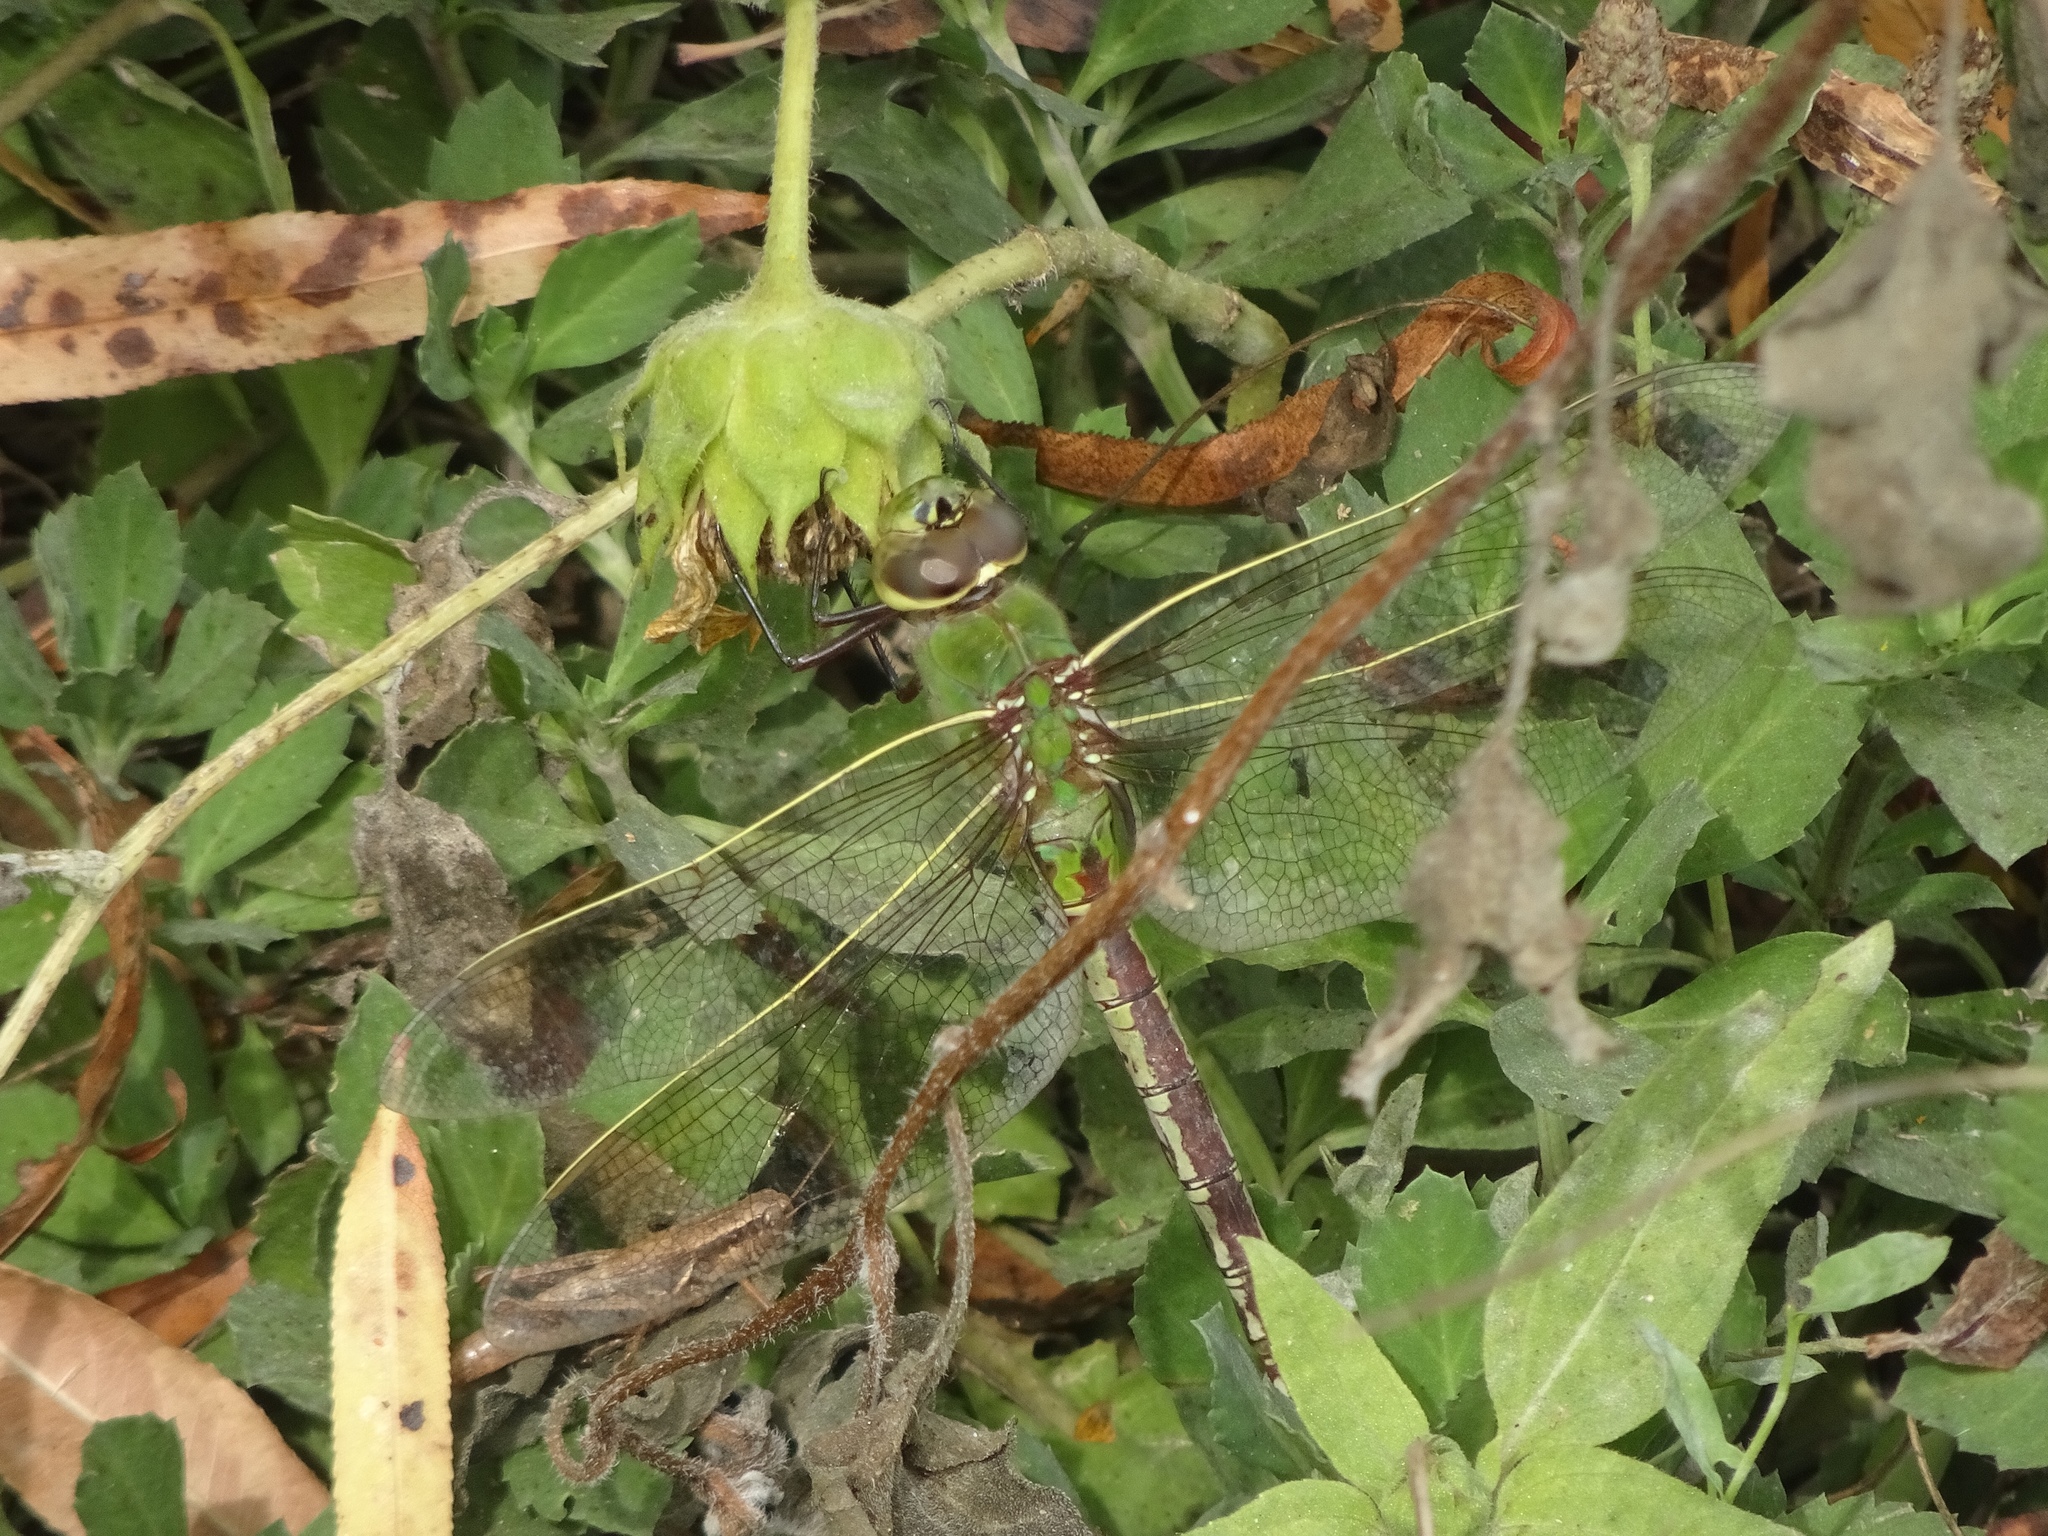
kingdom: Animalia
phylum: Arthropoda
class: Insecta
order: Odonata
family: Aeshnidae
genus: Anax
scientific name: Anax junius
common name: Common green darner
